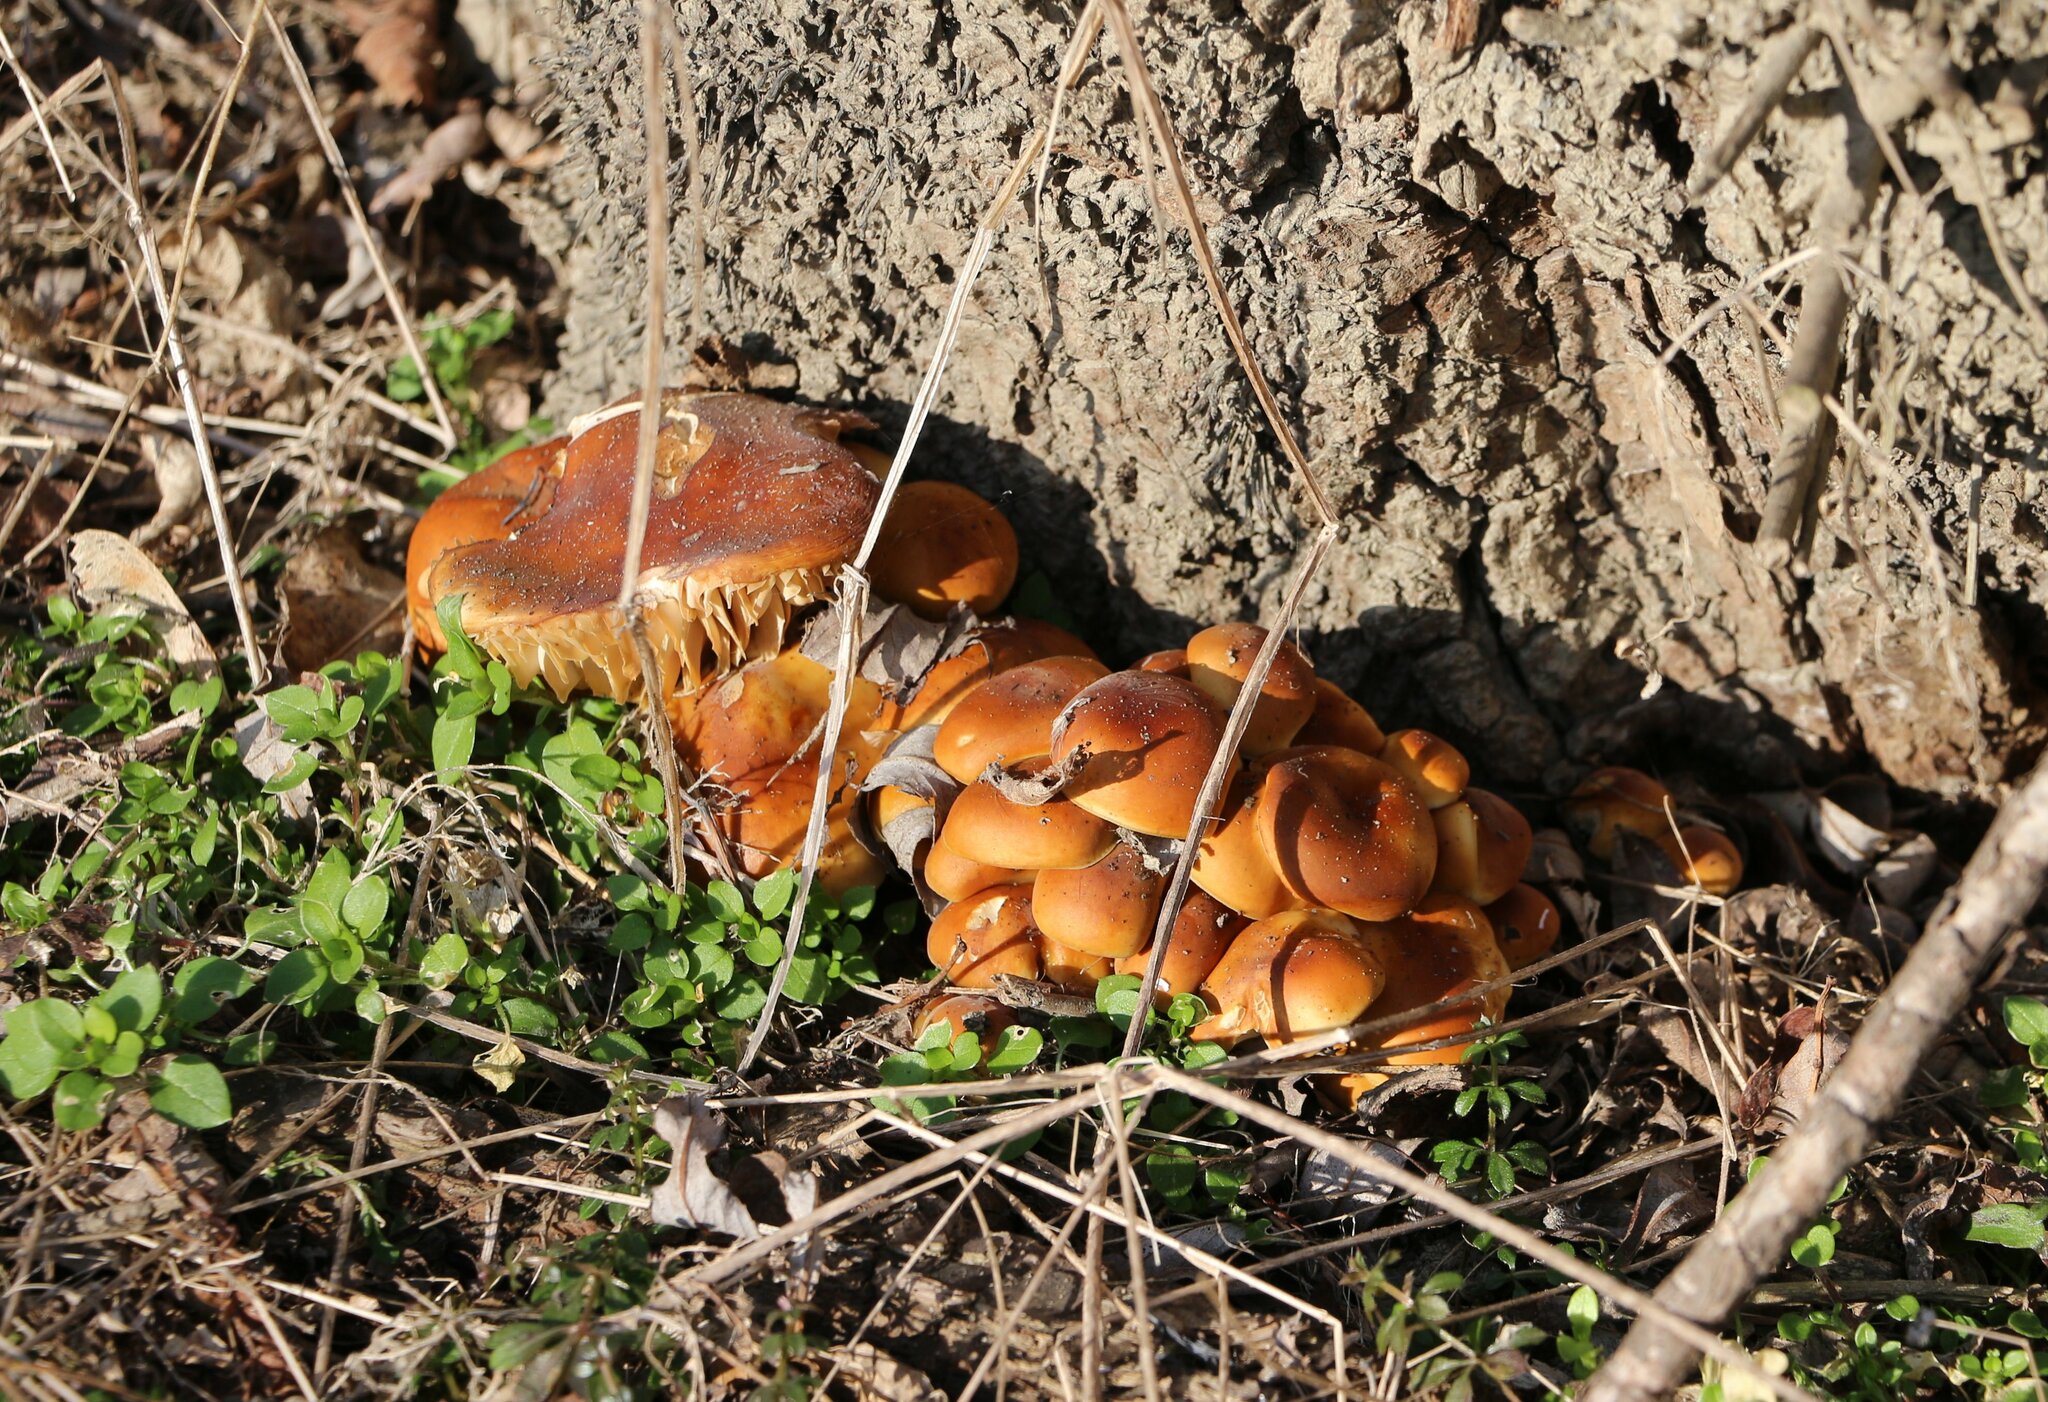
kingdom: Fungi
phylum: Basidiomycota
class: Agaricomycetes
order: Agaricales
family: Physalacriaceae
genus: Flammulina
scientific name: Flammulina
